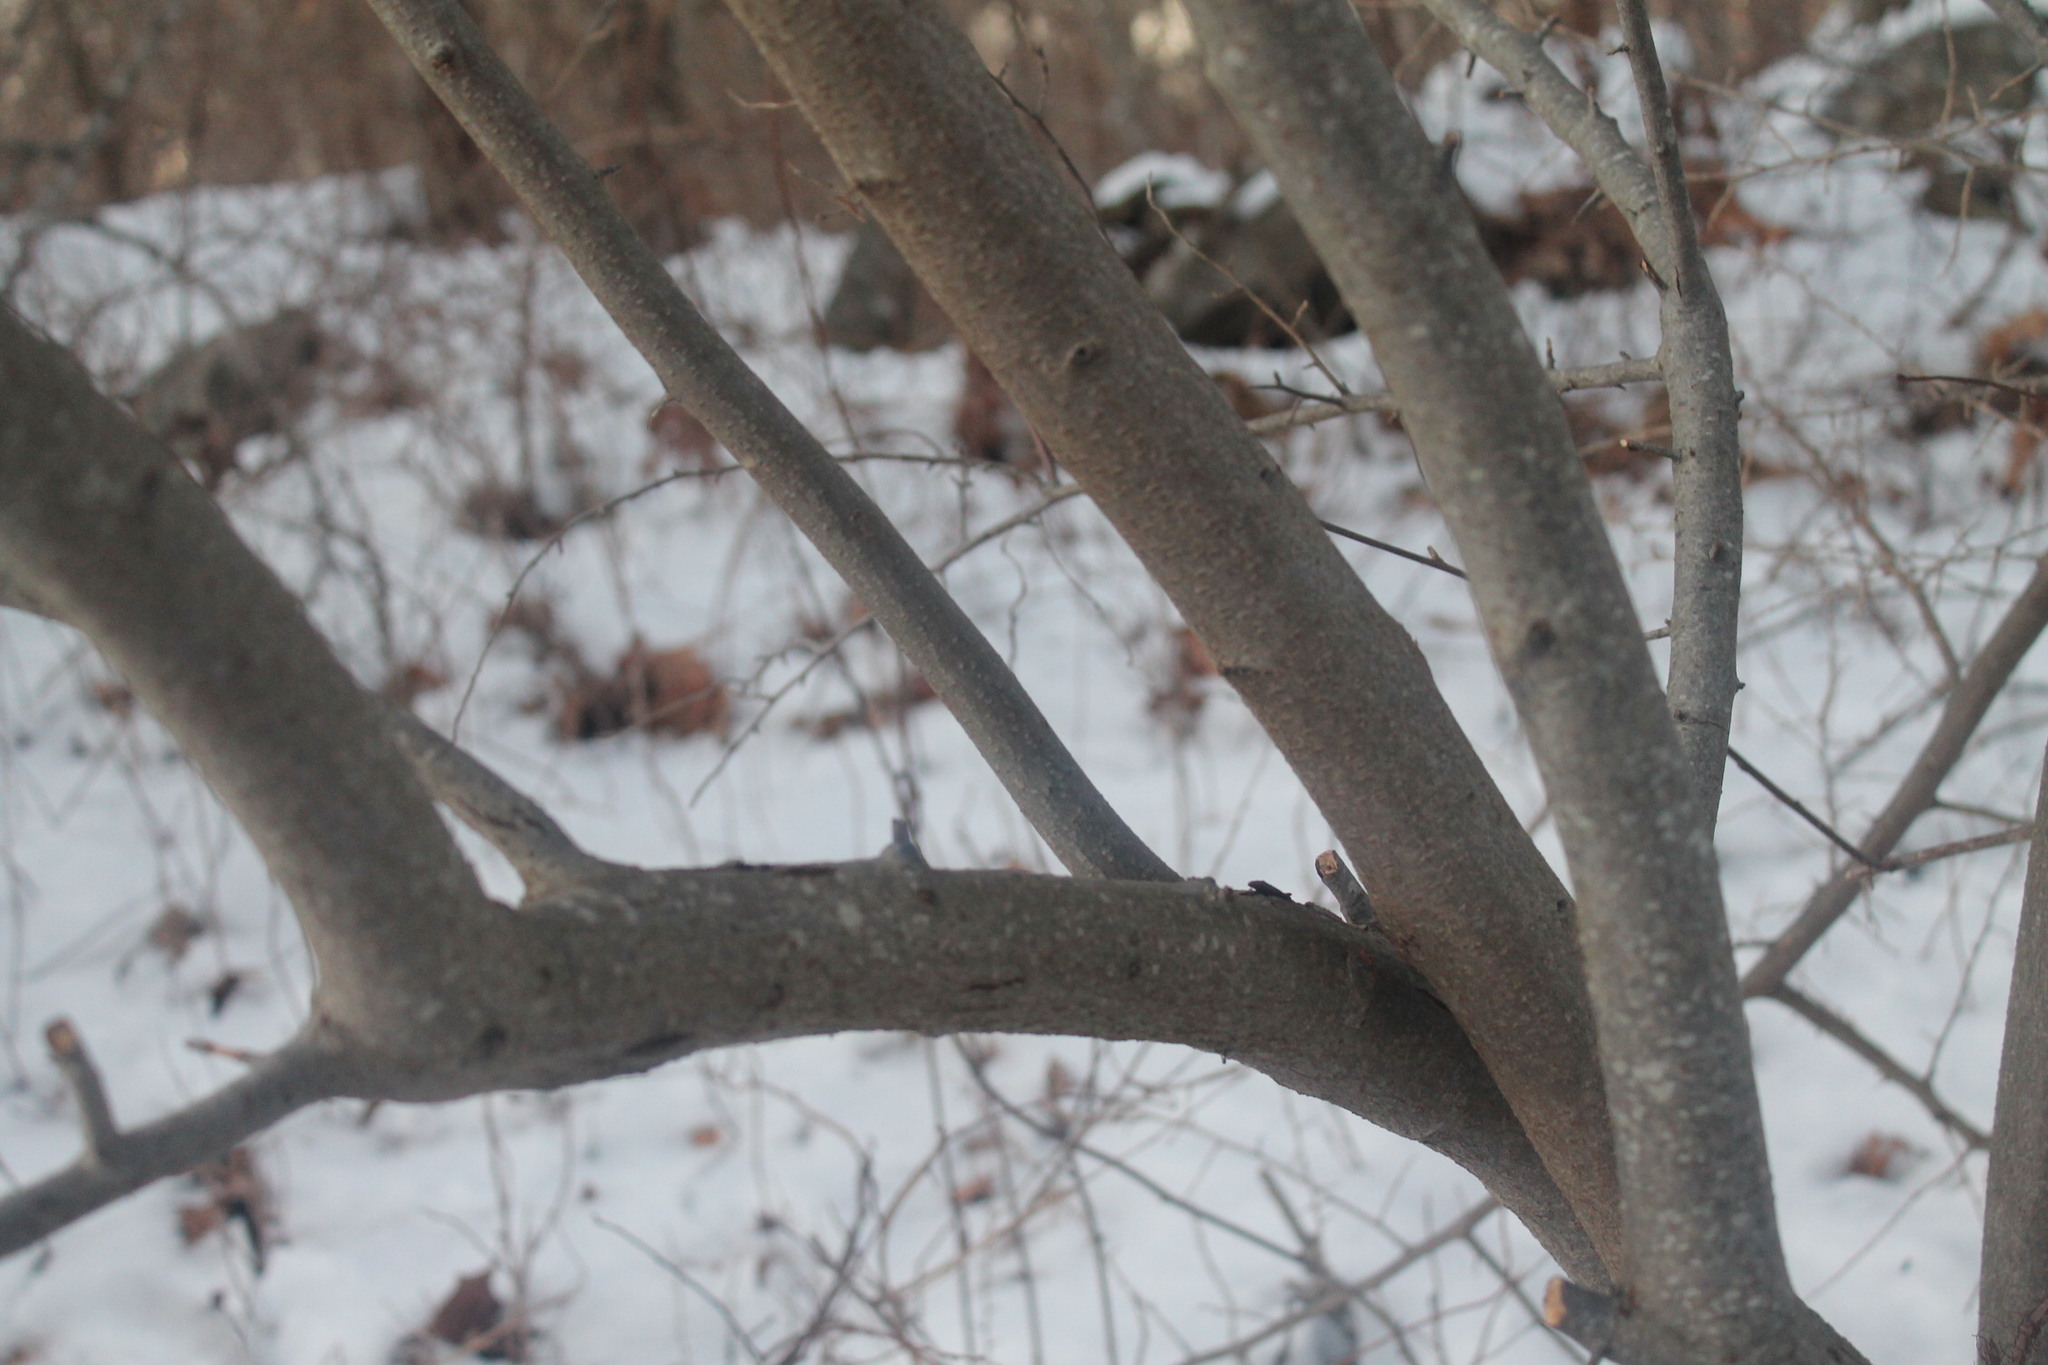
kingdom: Plantae
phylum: Tracheophyta
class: Magnoliopsida
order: Rosales
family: Elaeagnaceae
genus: Elaeagnus
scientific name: Elaeagnus umbellata
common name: Autumn olive
